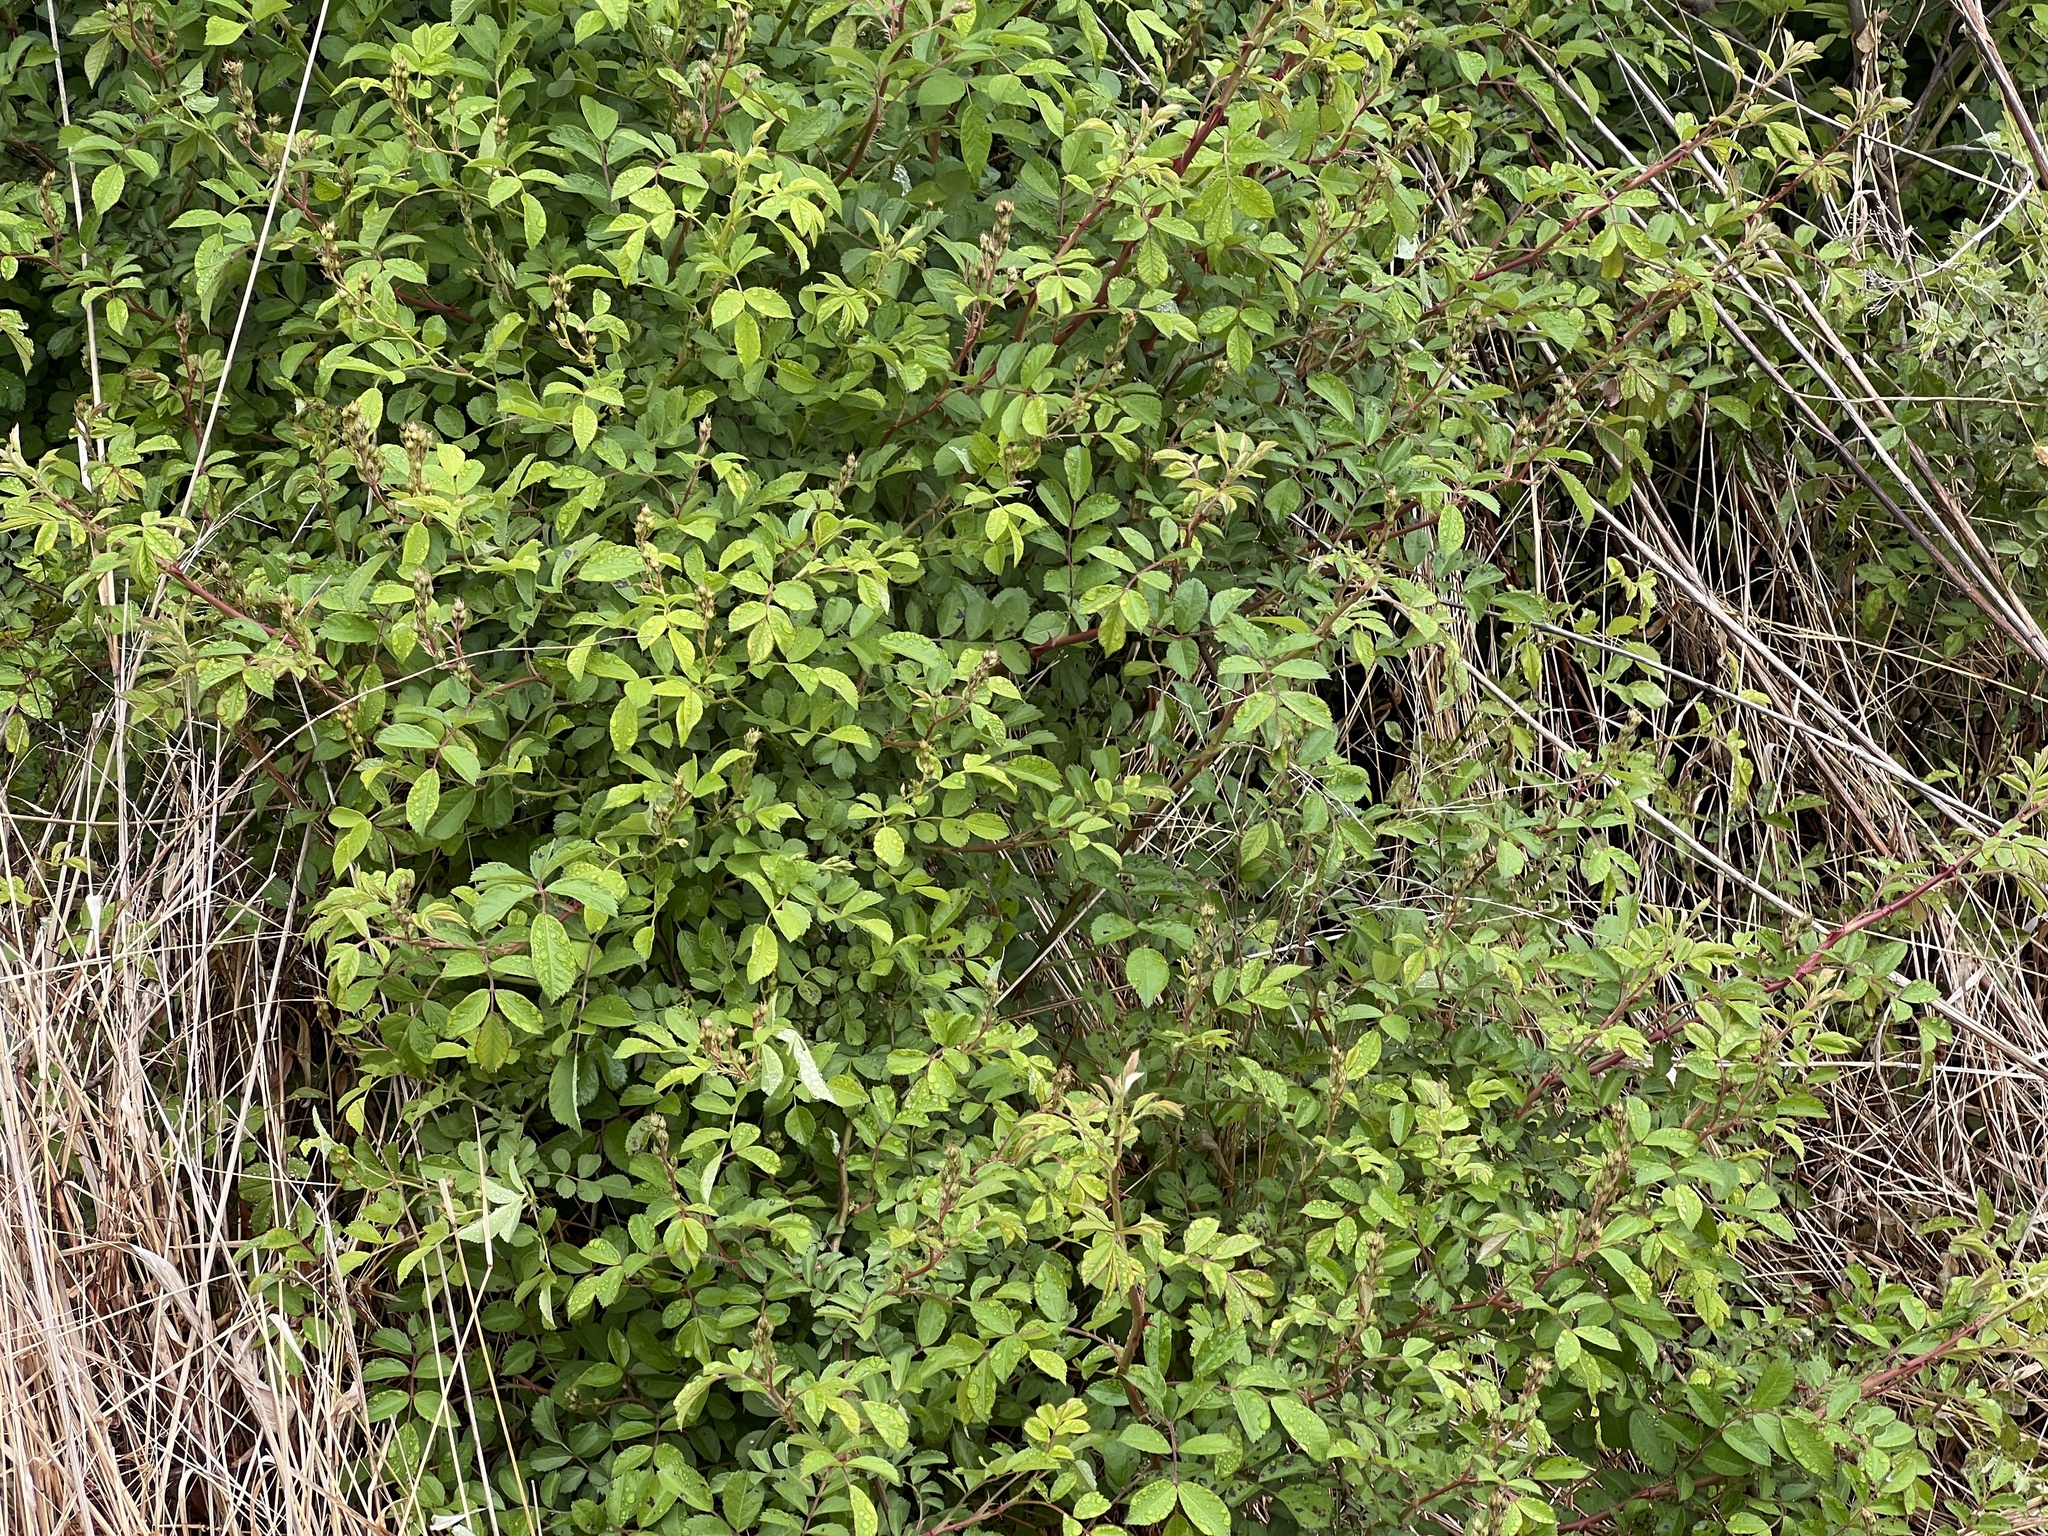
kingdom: Plantae
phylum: Tracheophyta
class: Magnoliopsida
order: Rosales
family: Rosaceae
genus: Rosa
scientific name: Rosa multiflora
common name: Multiflora rose
